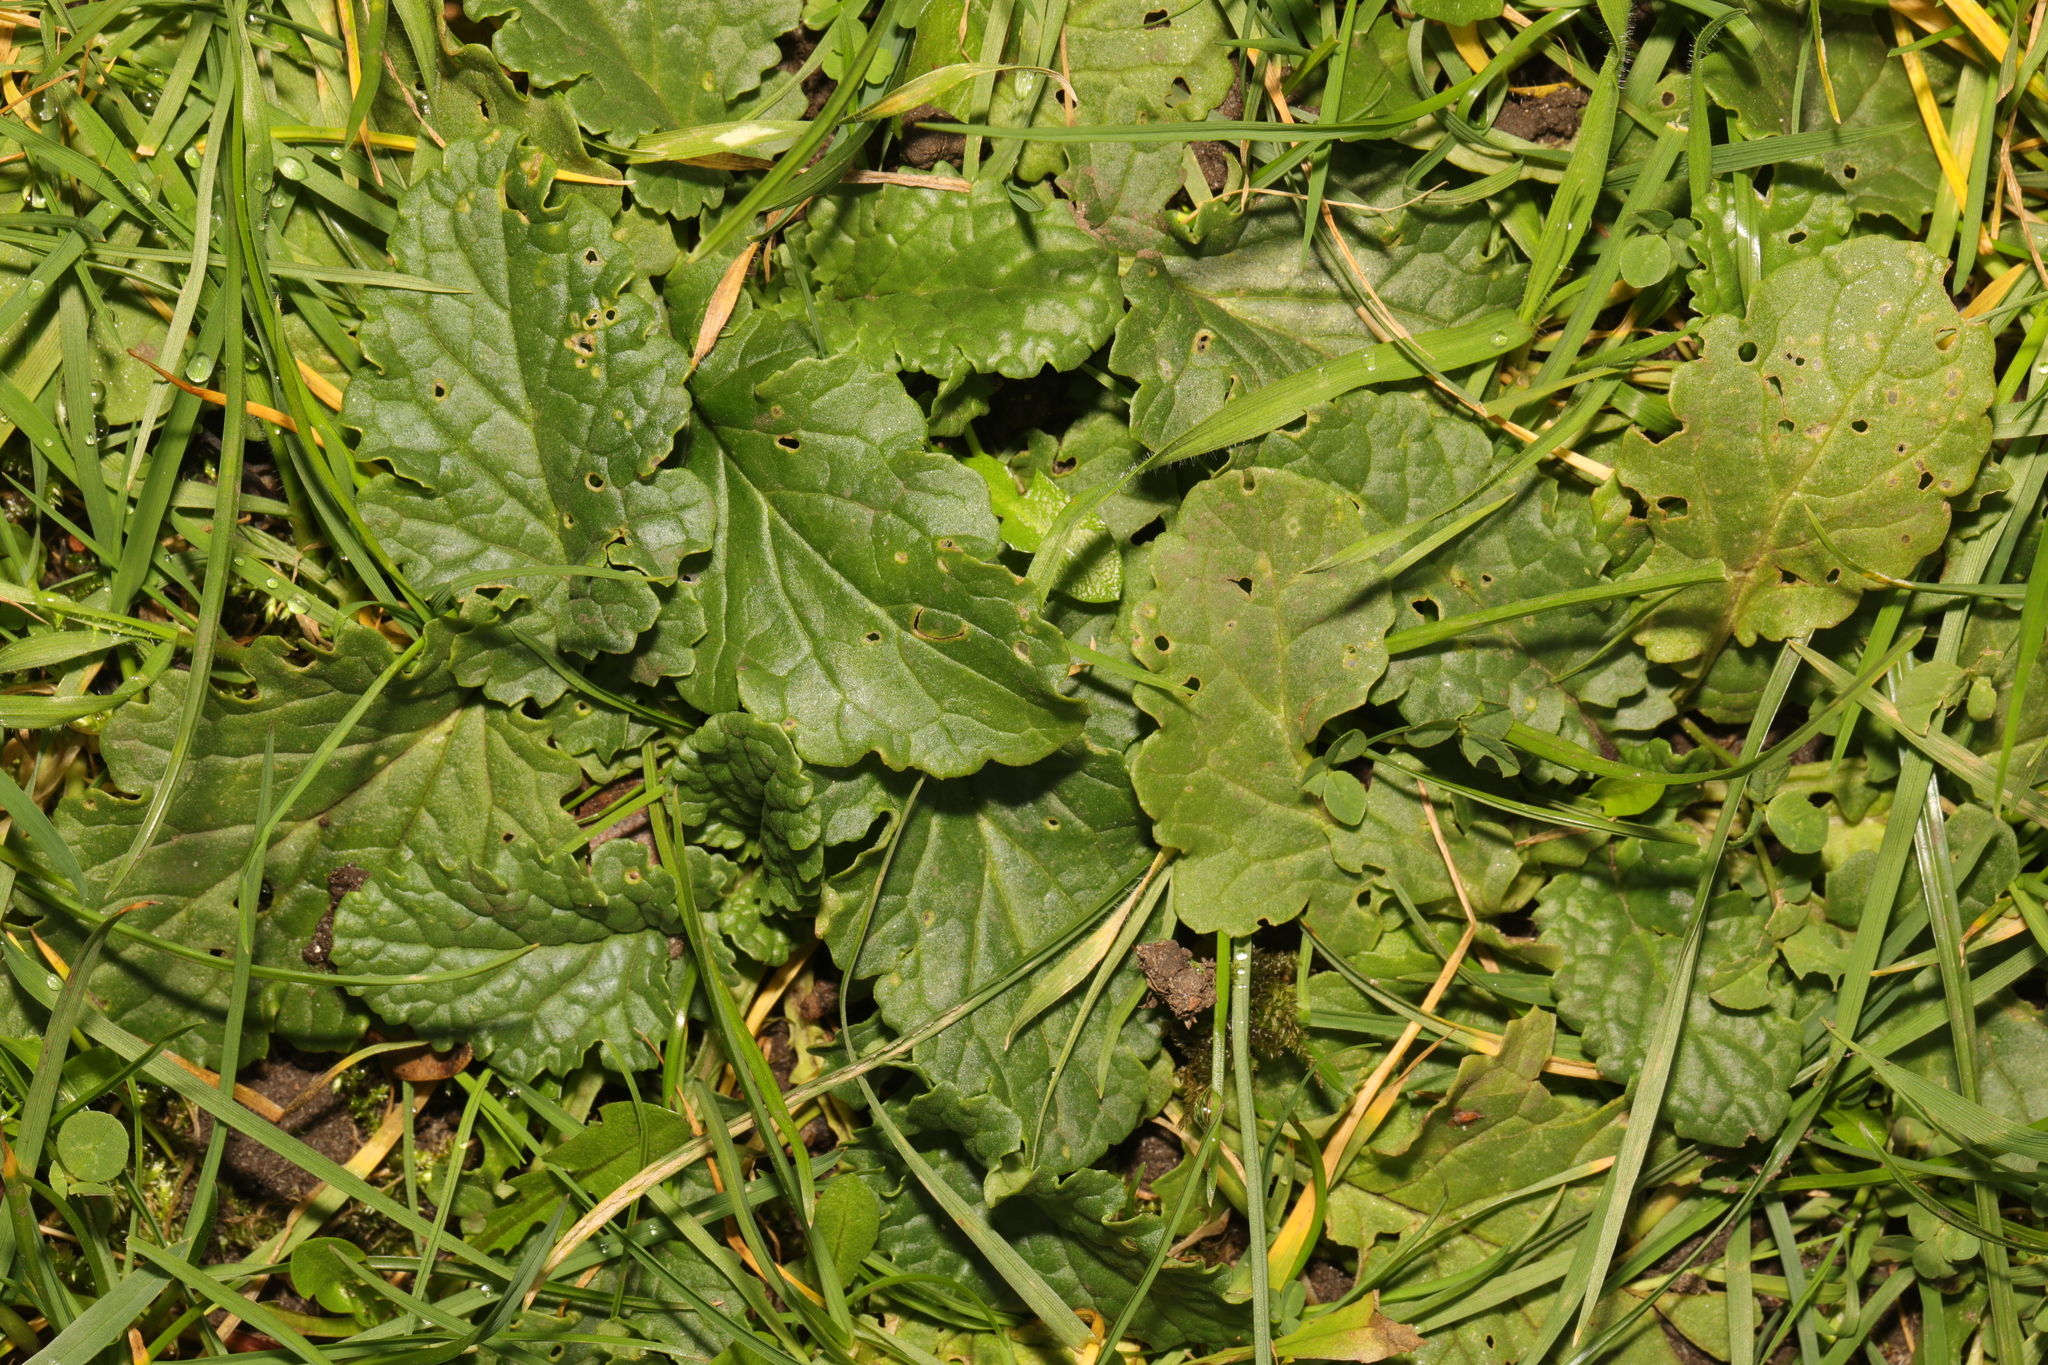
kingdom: Plantae
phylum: Tracheophyta
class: Magnoliopsida
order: Asterales
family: Asteraceae
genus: Jacobaea
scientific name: Jacobaea vulgaris
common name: Stinking willie
